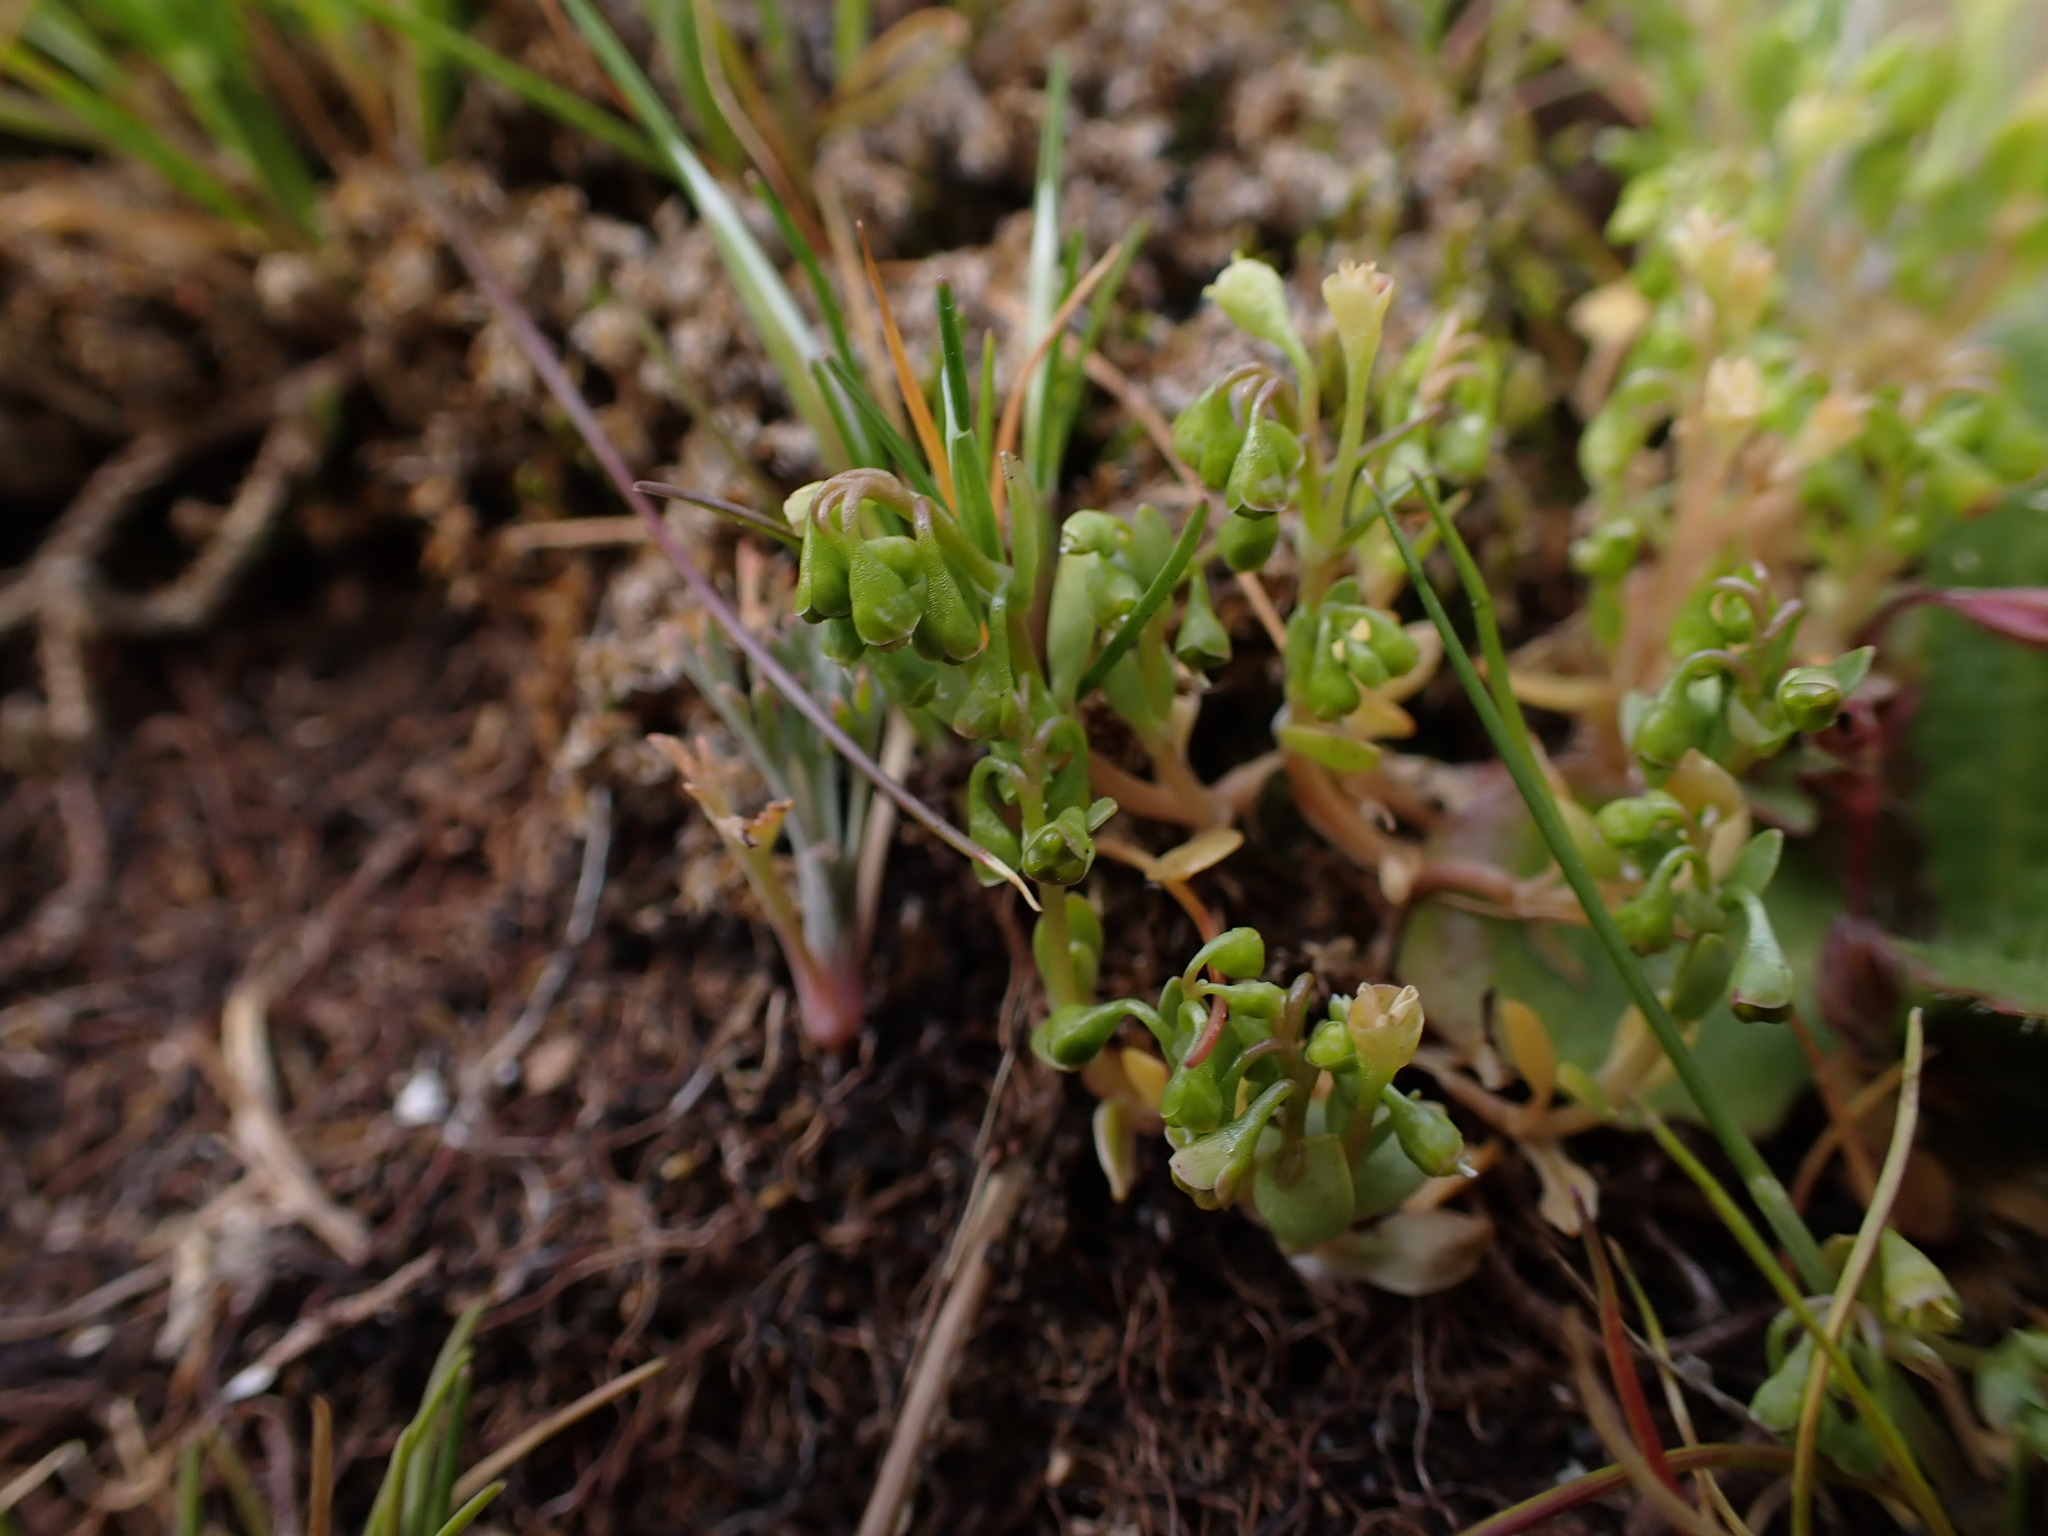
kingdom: Plantae
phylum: Tracheophyta
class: Magnoliopsida
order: Caryophyllales
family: Montiaceae
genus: Montia
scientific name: Montia linearis
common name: Narrow-leaf montia
